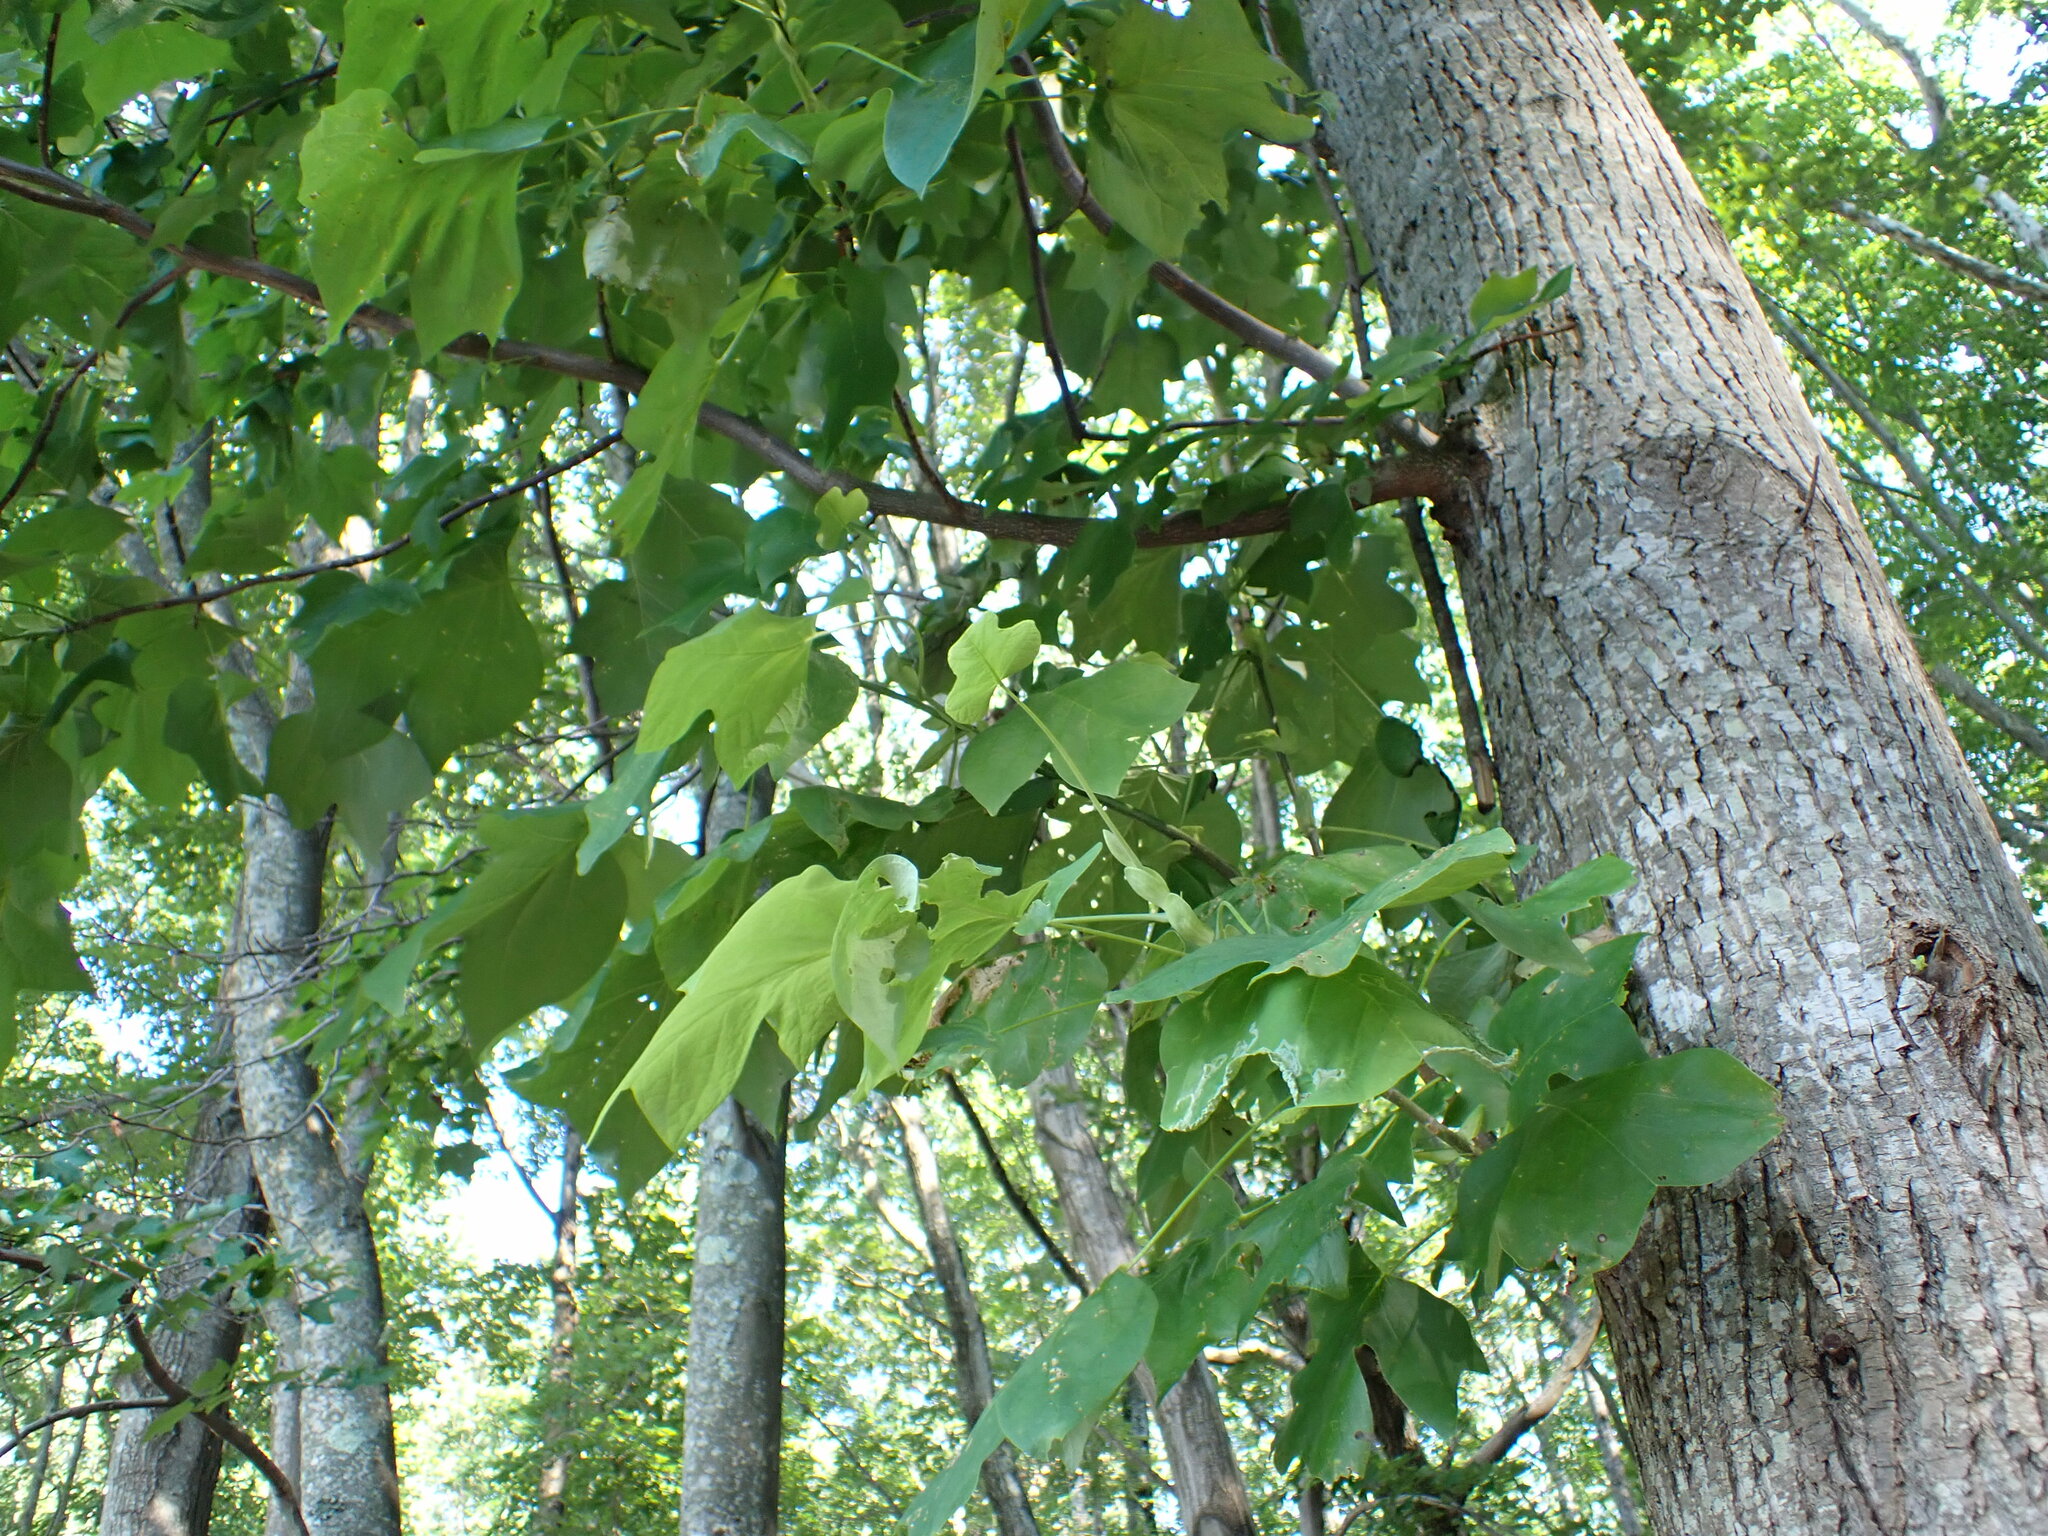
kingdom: Plantae
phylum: Tracheophyta
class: Magnoliopsida
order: Magnoliales
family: Magnoliaceae
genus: Liriodendron
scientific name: Liriodendron tulipifera
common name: Tulip tree
